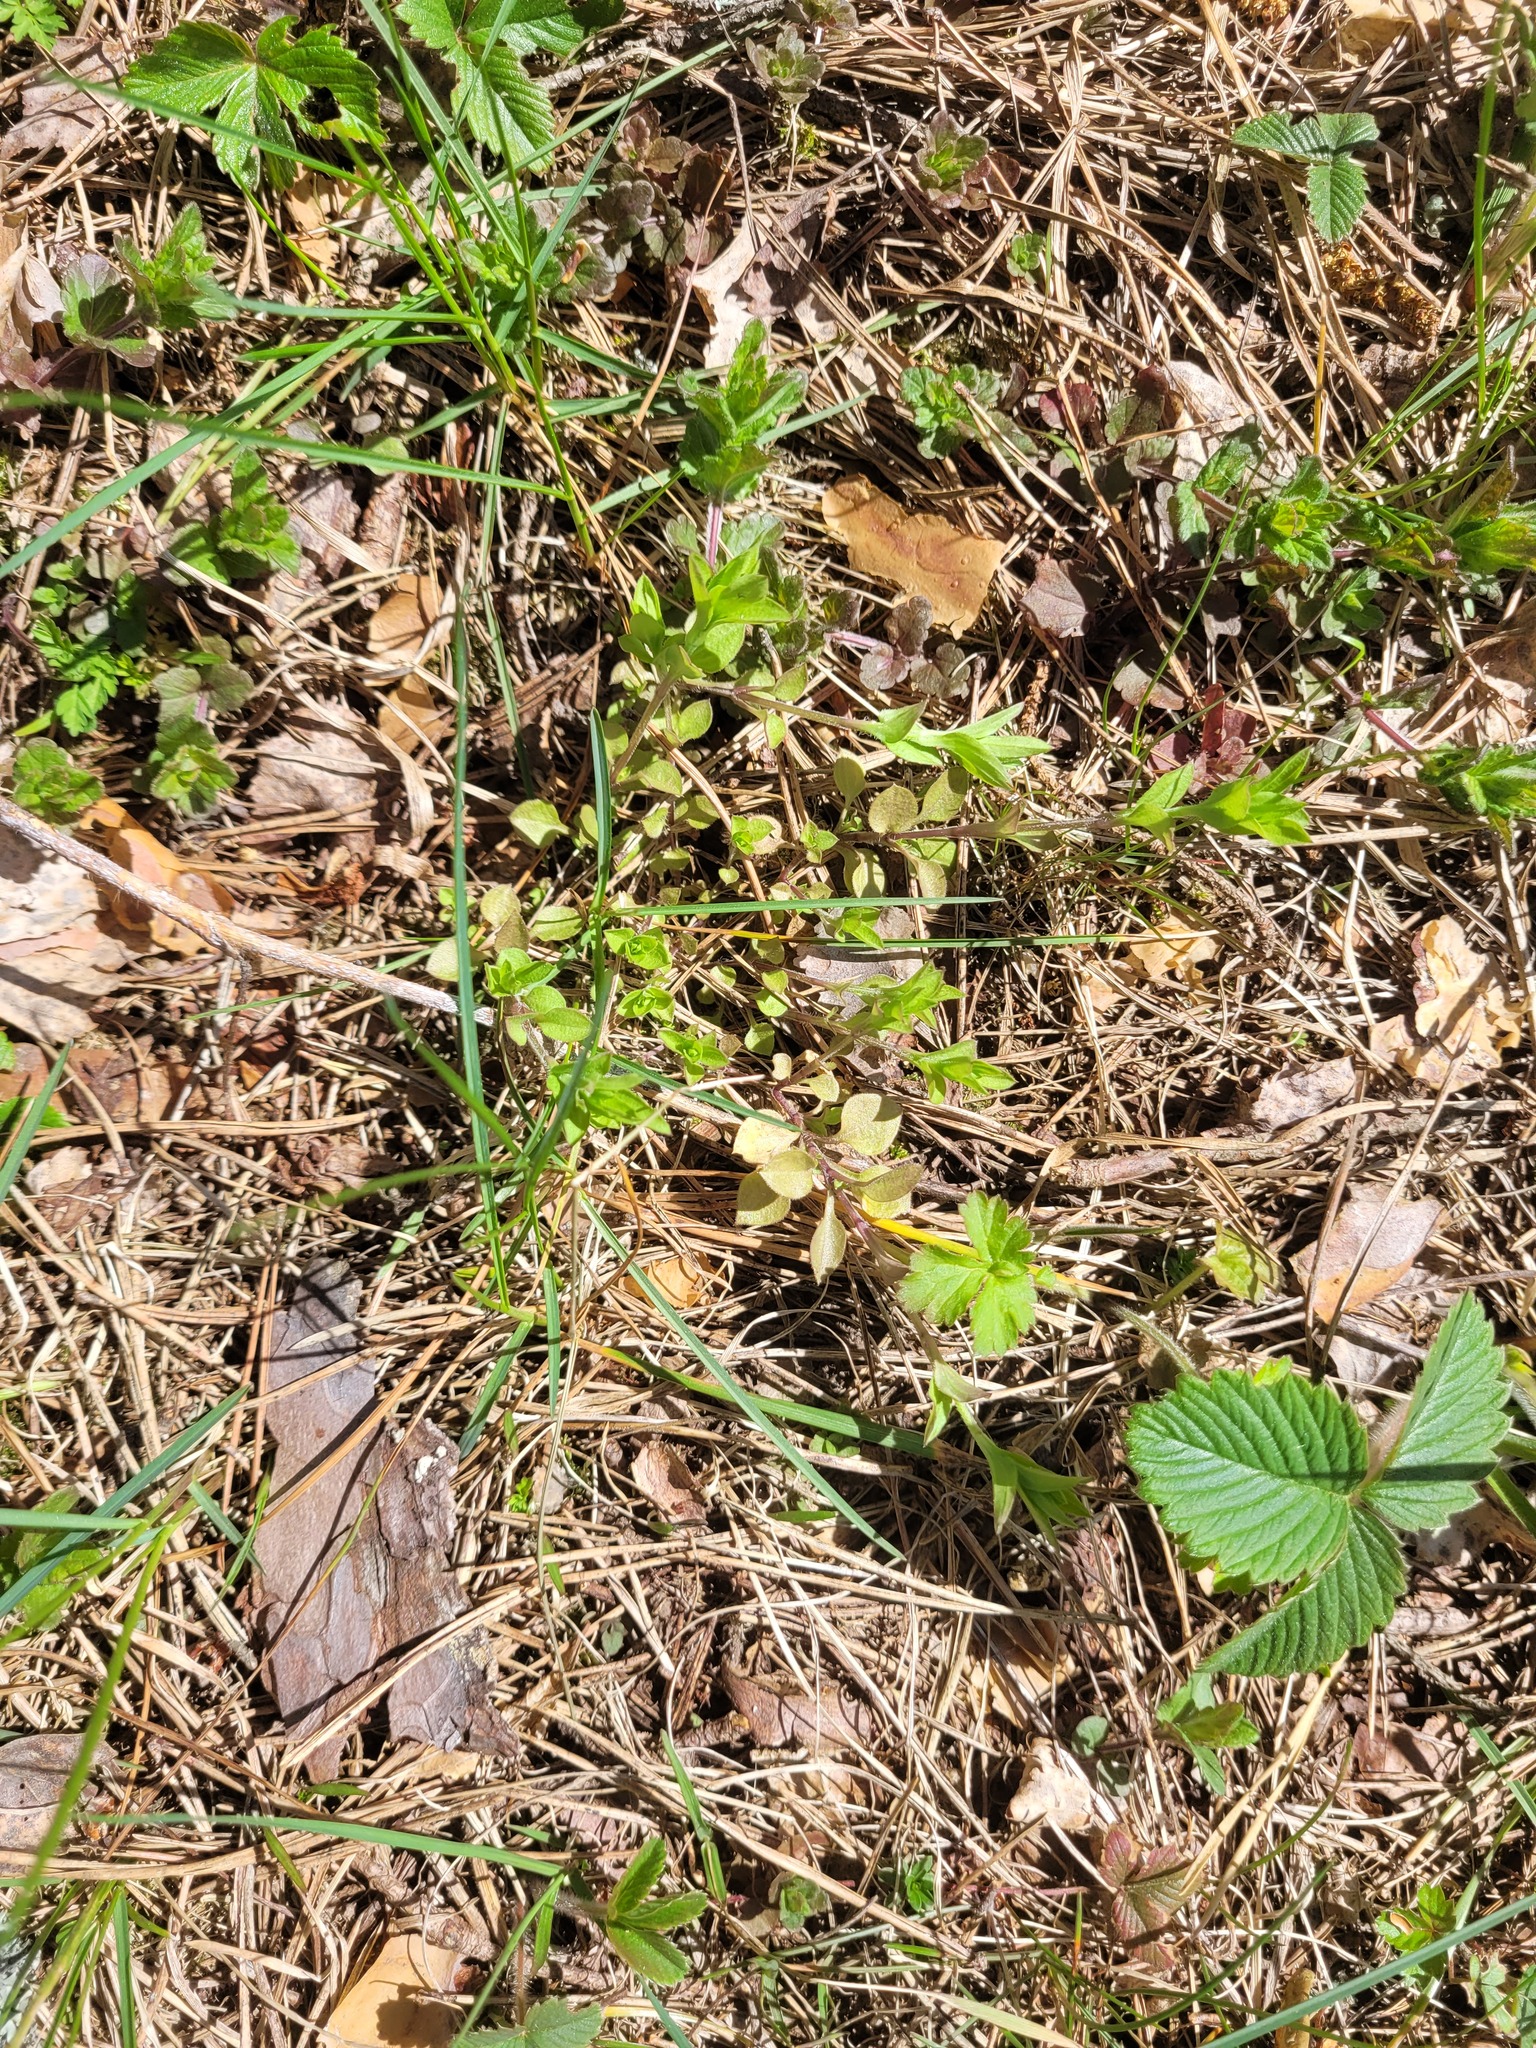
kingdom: Plantae
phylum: Tracheophyta
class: Magnoliopsida
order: Caryophyllales
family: Caryophyllaceae
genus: Moehringia
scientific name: Moehringia trinervia
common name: Three-nerved sandwort
